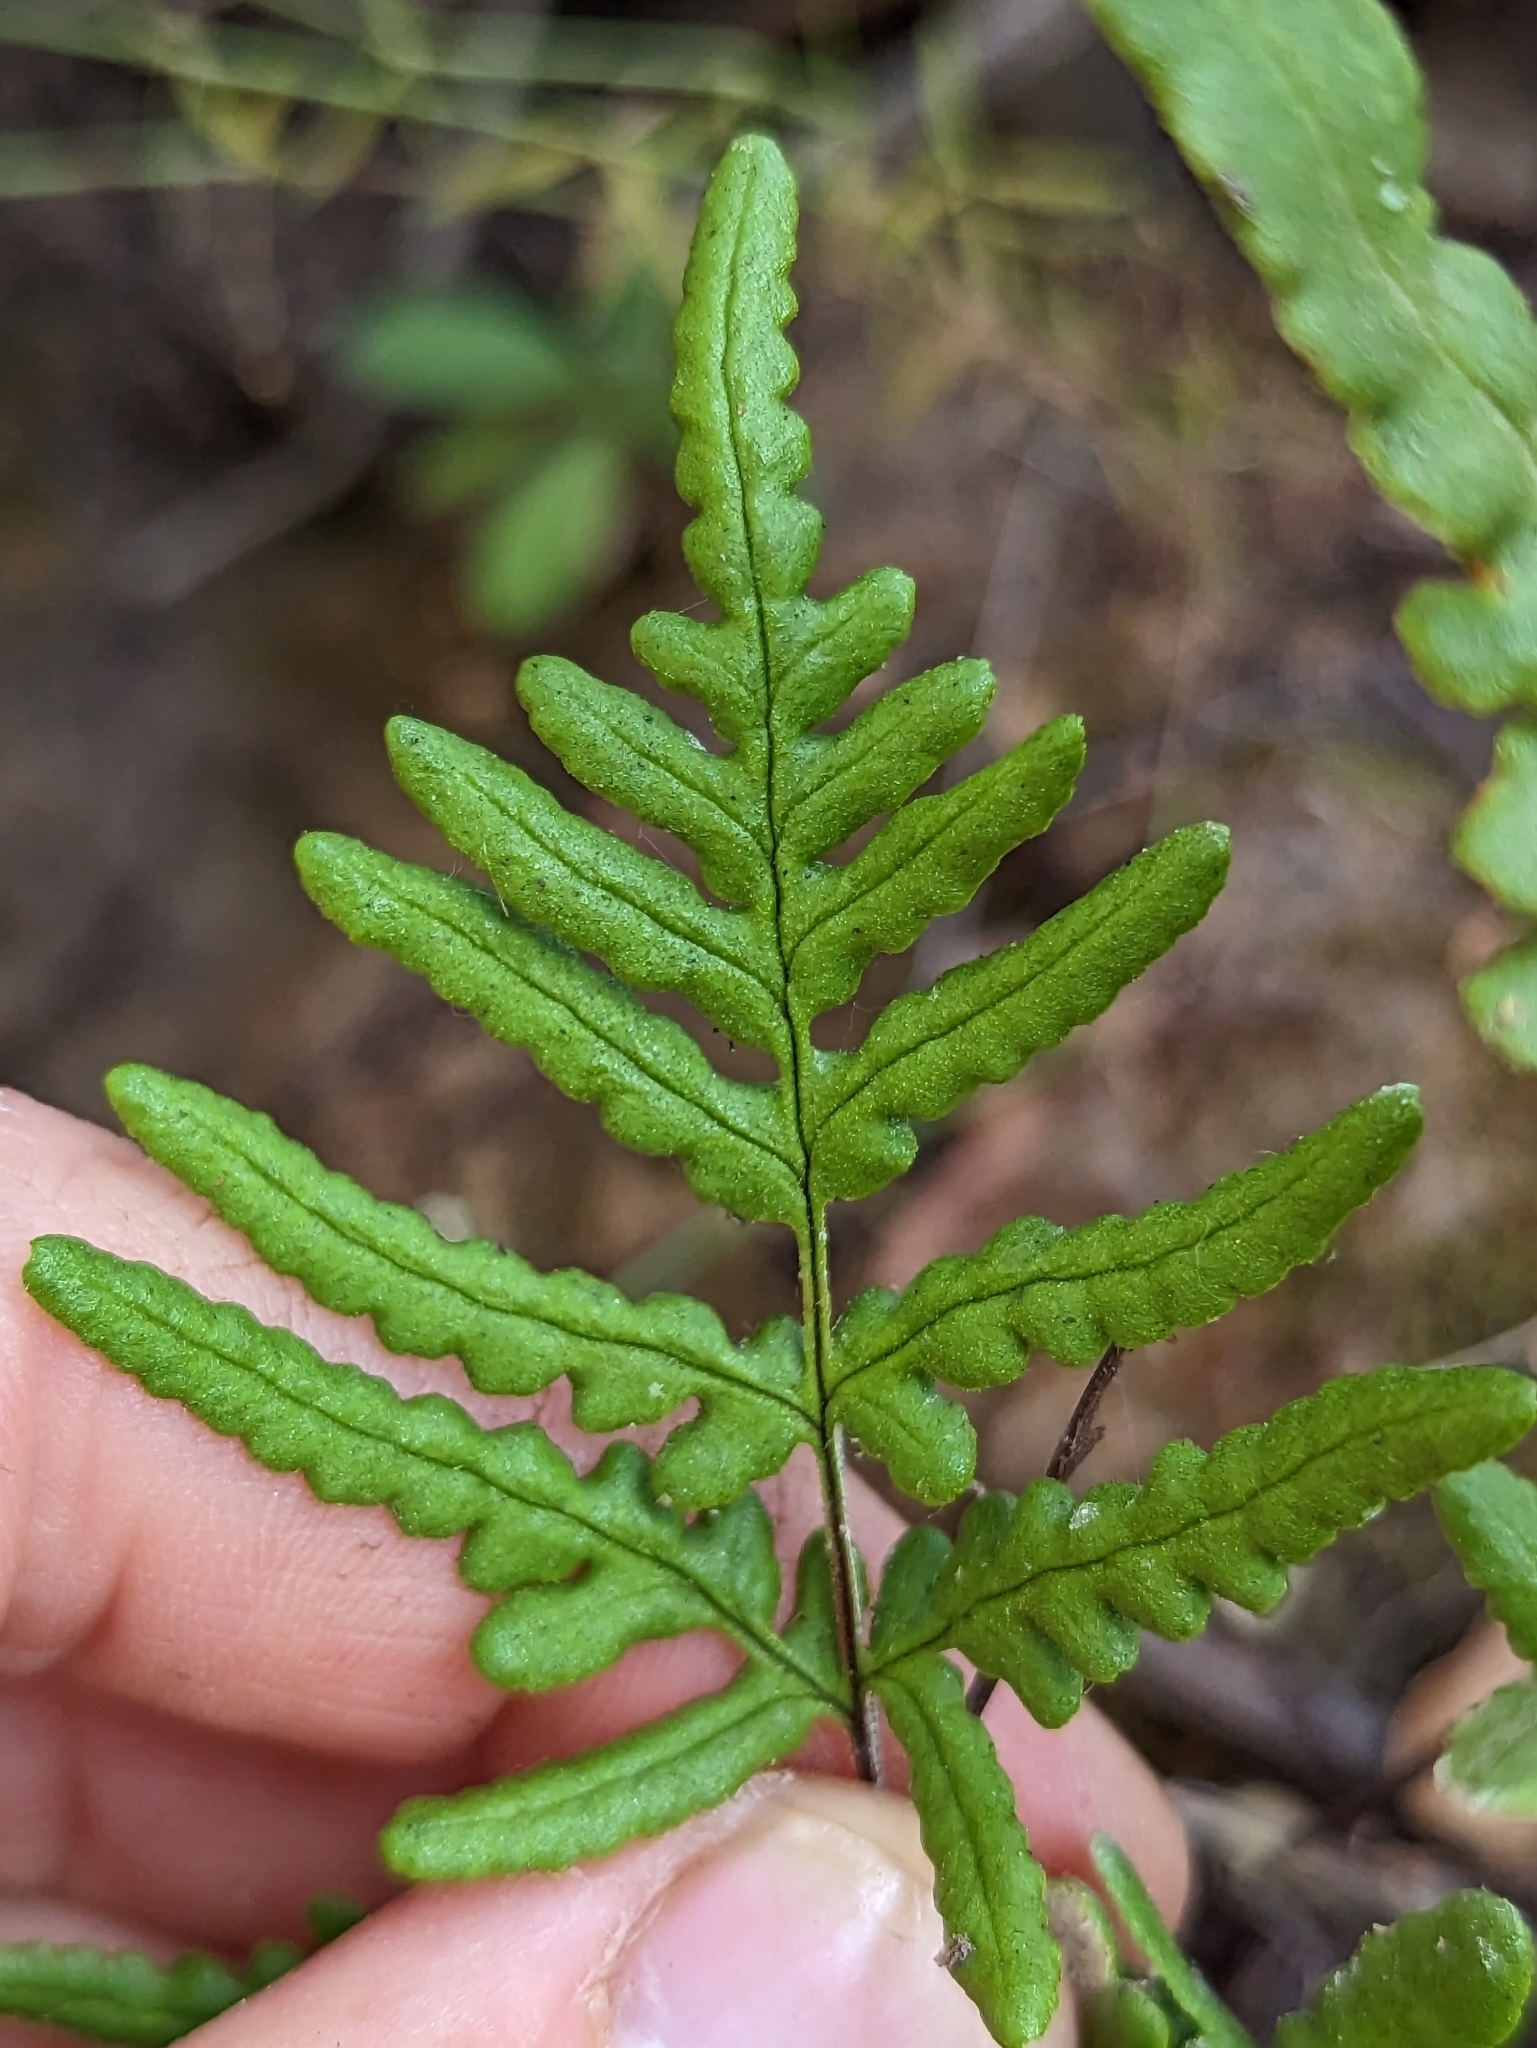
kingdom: Plantae
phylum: Tracheophyta
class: Polypodiopsida
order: Polypodiales
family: Pteridaceae
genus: Pentagramma
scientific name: Pentagramma viscosa
